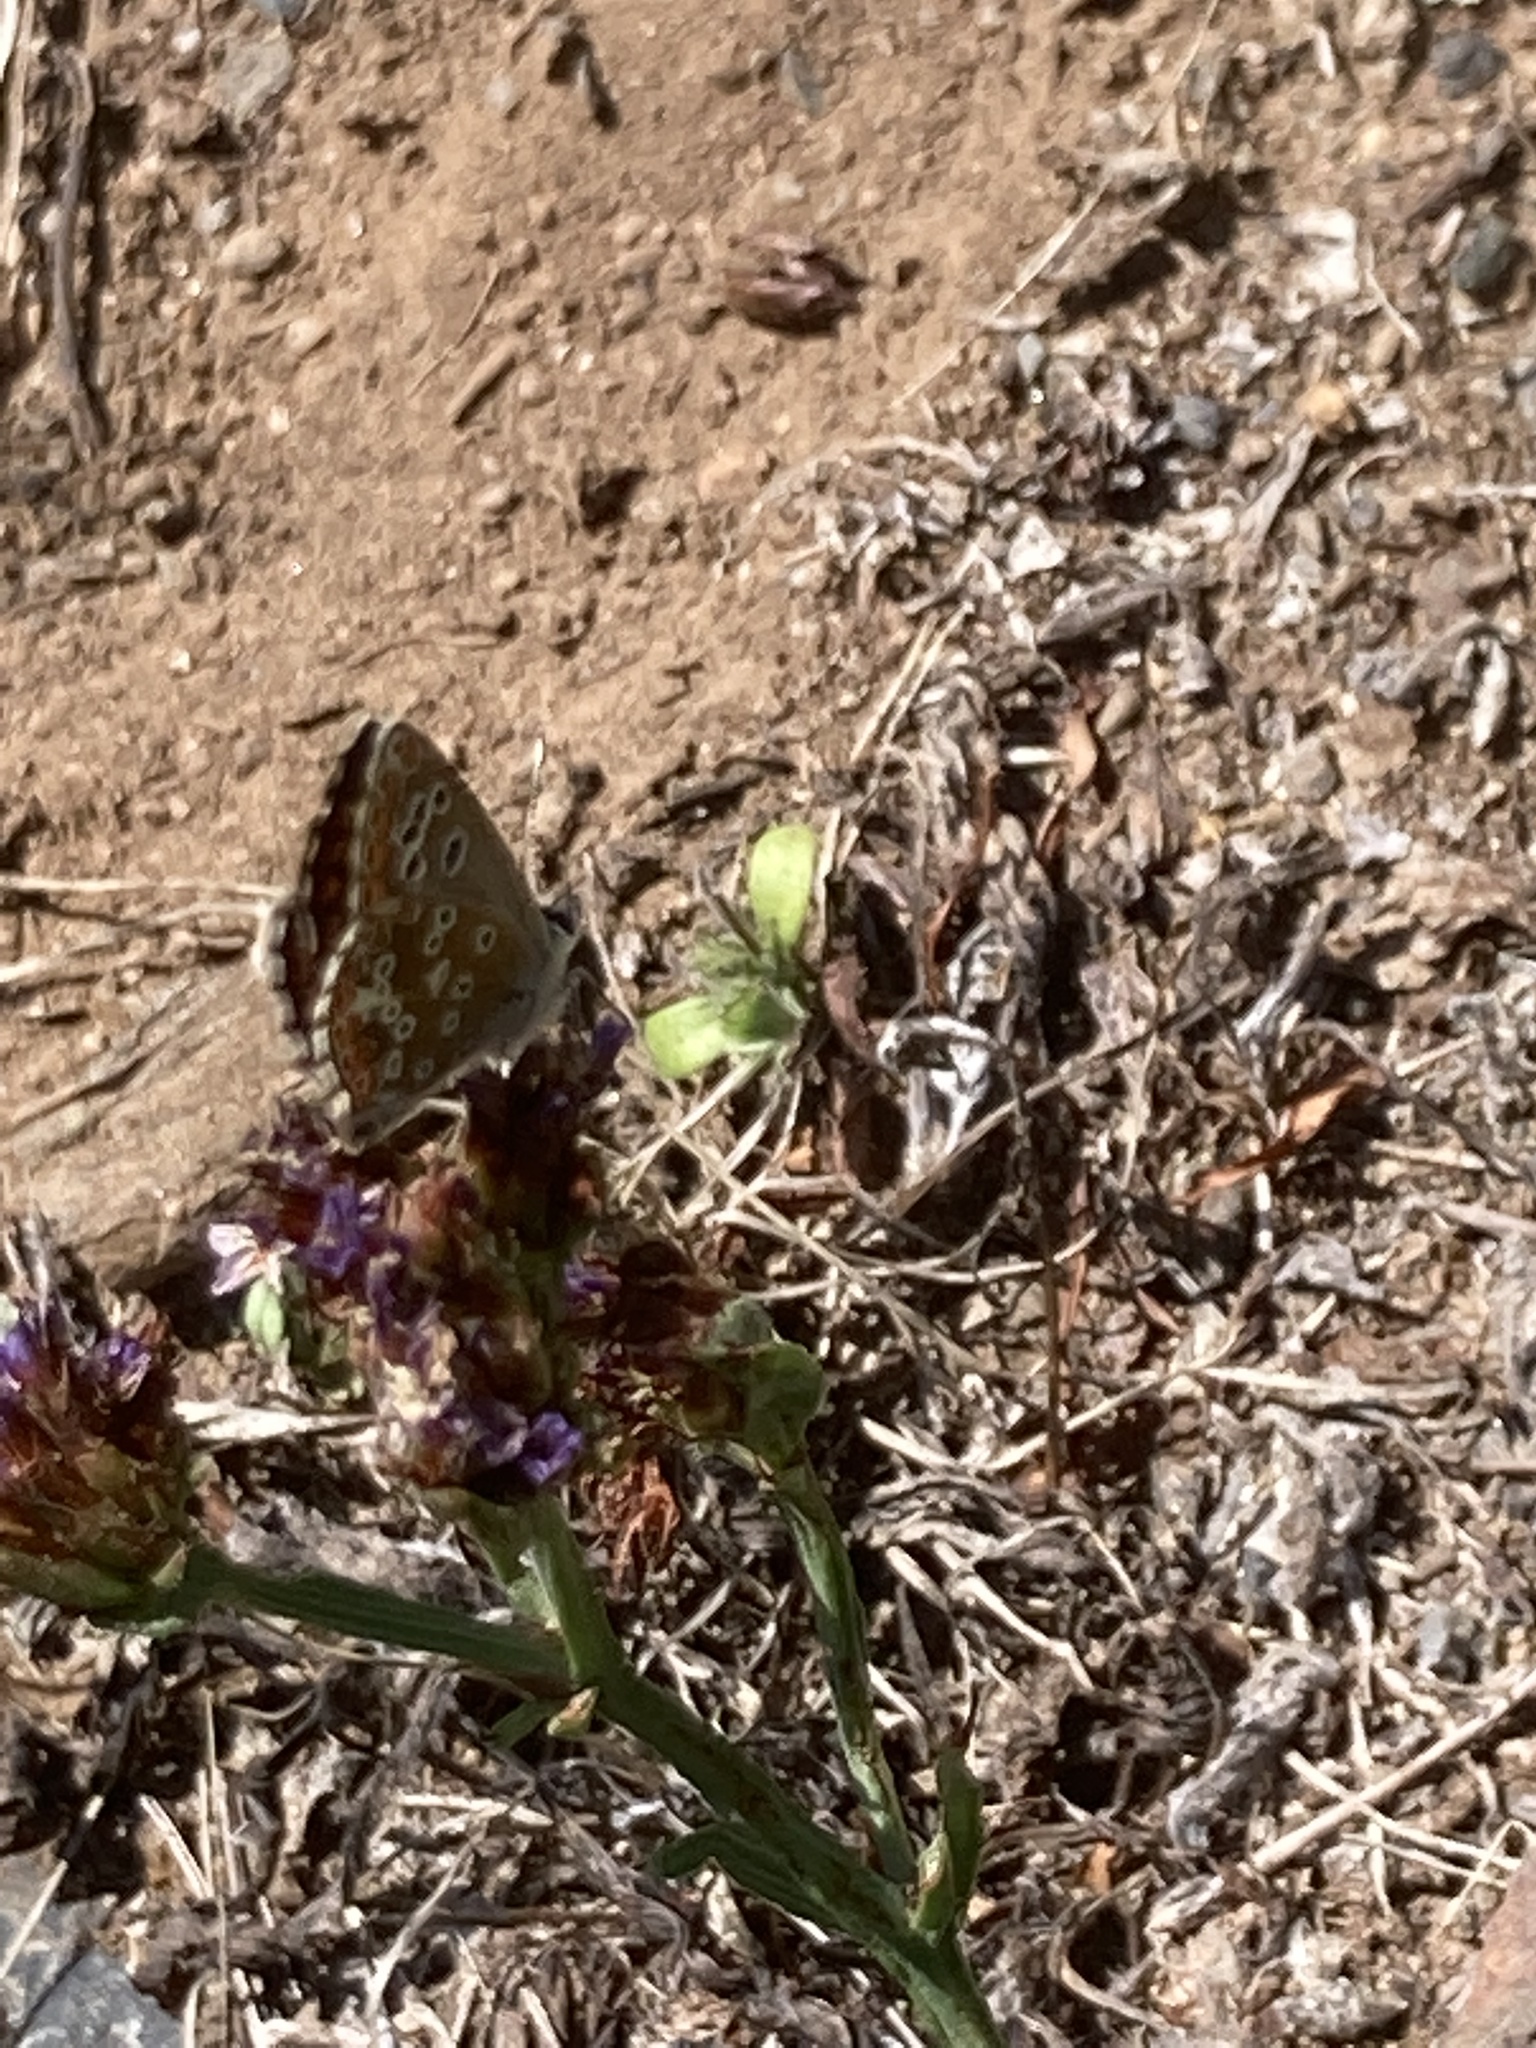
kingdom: Animalia
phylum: Arthropoda
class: Insecta
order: Lepidoptera
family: Lycaenidae
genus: Aricia
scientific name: Aricia cramera
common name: Eschscholtz´s brown  argus
